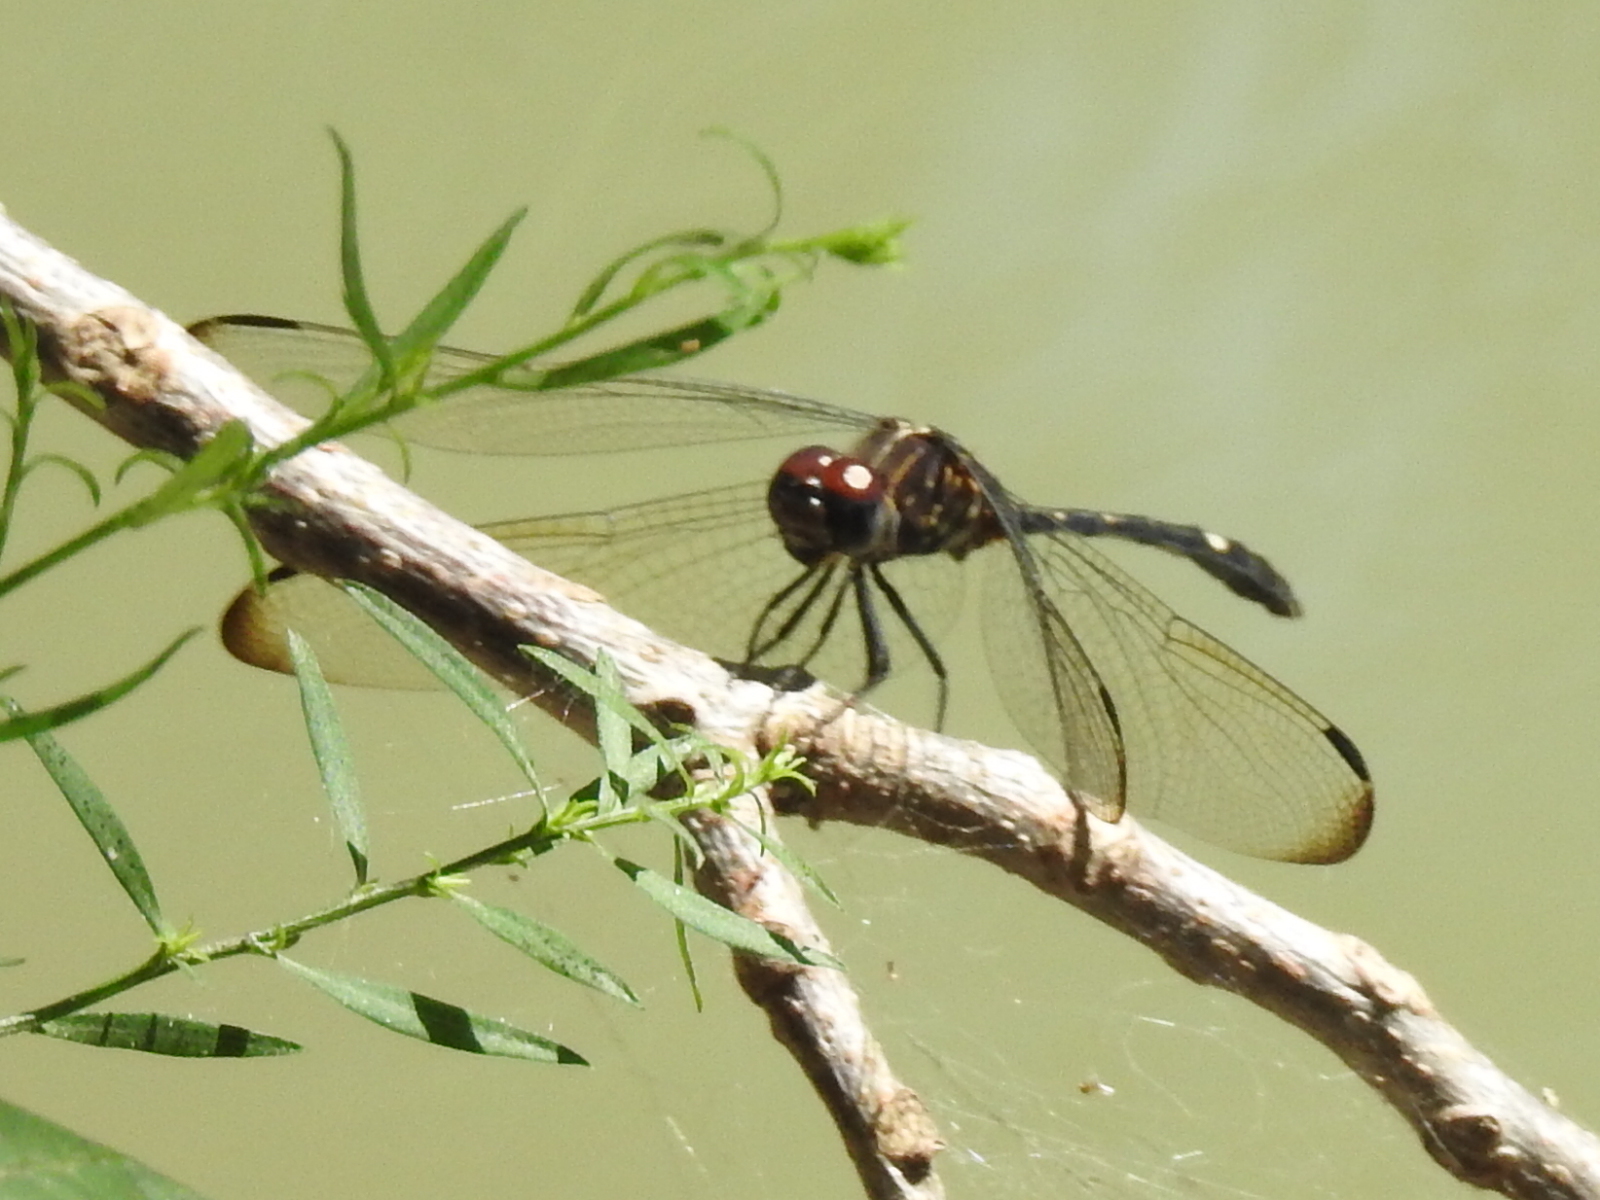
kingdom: Animalia
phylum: Arthropoda
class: Insecta
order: Odonata
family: Libellulidae
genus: Dythemis
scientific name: Dythemis velox
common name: Swift setwing
